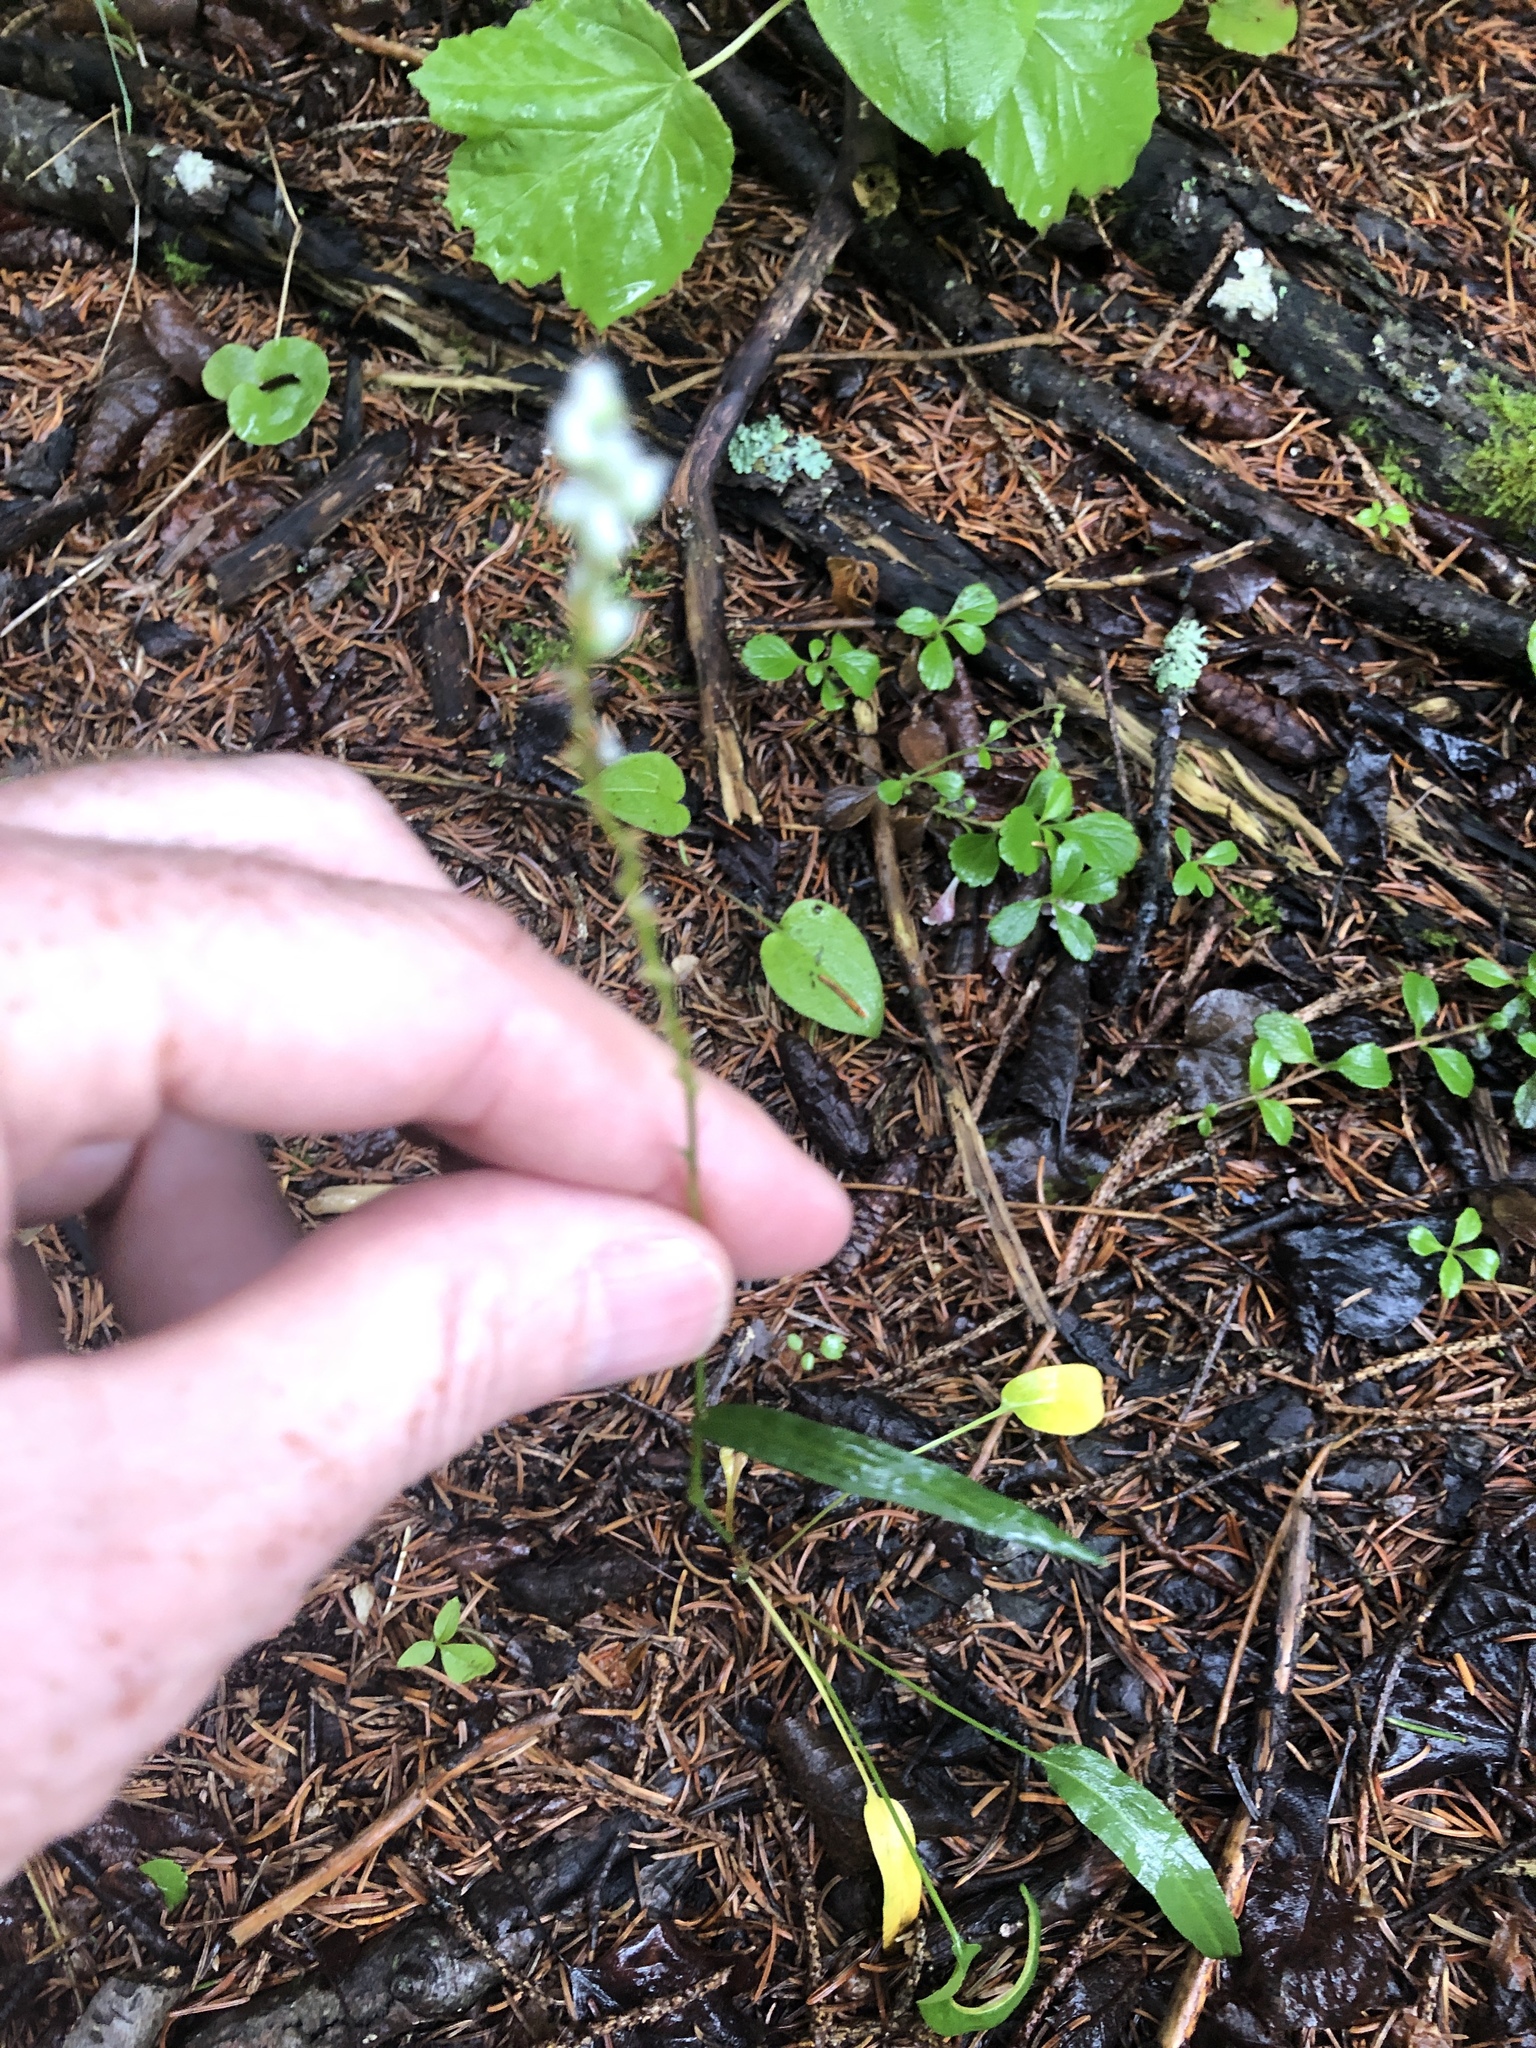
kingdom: Plantae
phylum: Tracheophyta
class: Magnoliopsida
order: Caryophyllales
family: Polygonaceae
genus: Bistorta
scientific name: Bistorta vivipara
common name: Alpine bistort
